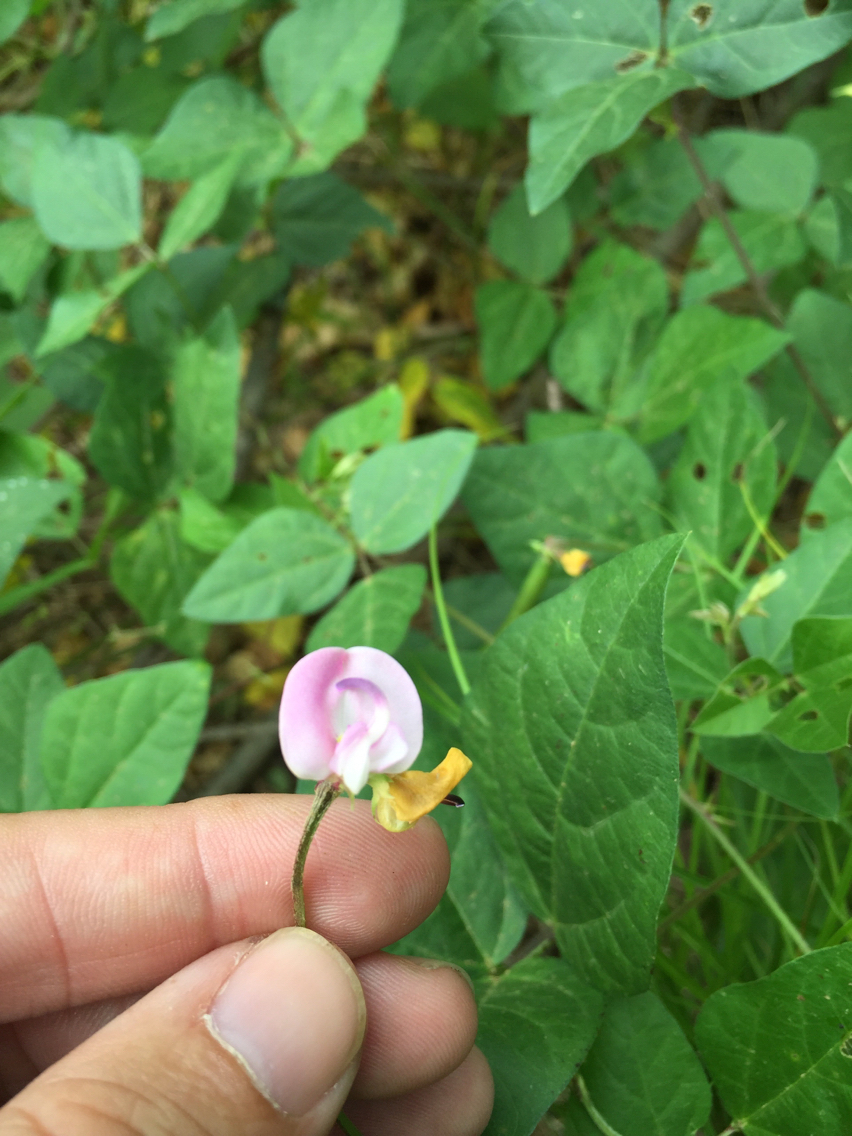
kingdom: Plantae
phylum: Tracheophyta
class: Magnoliopsida
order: Fabales
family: Fabaceae
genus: Strophostyles
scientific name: Strophostyles helvola
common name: Trailing wild bean
